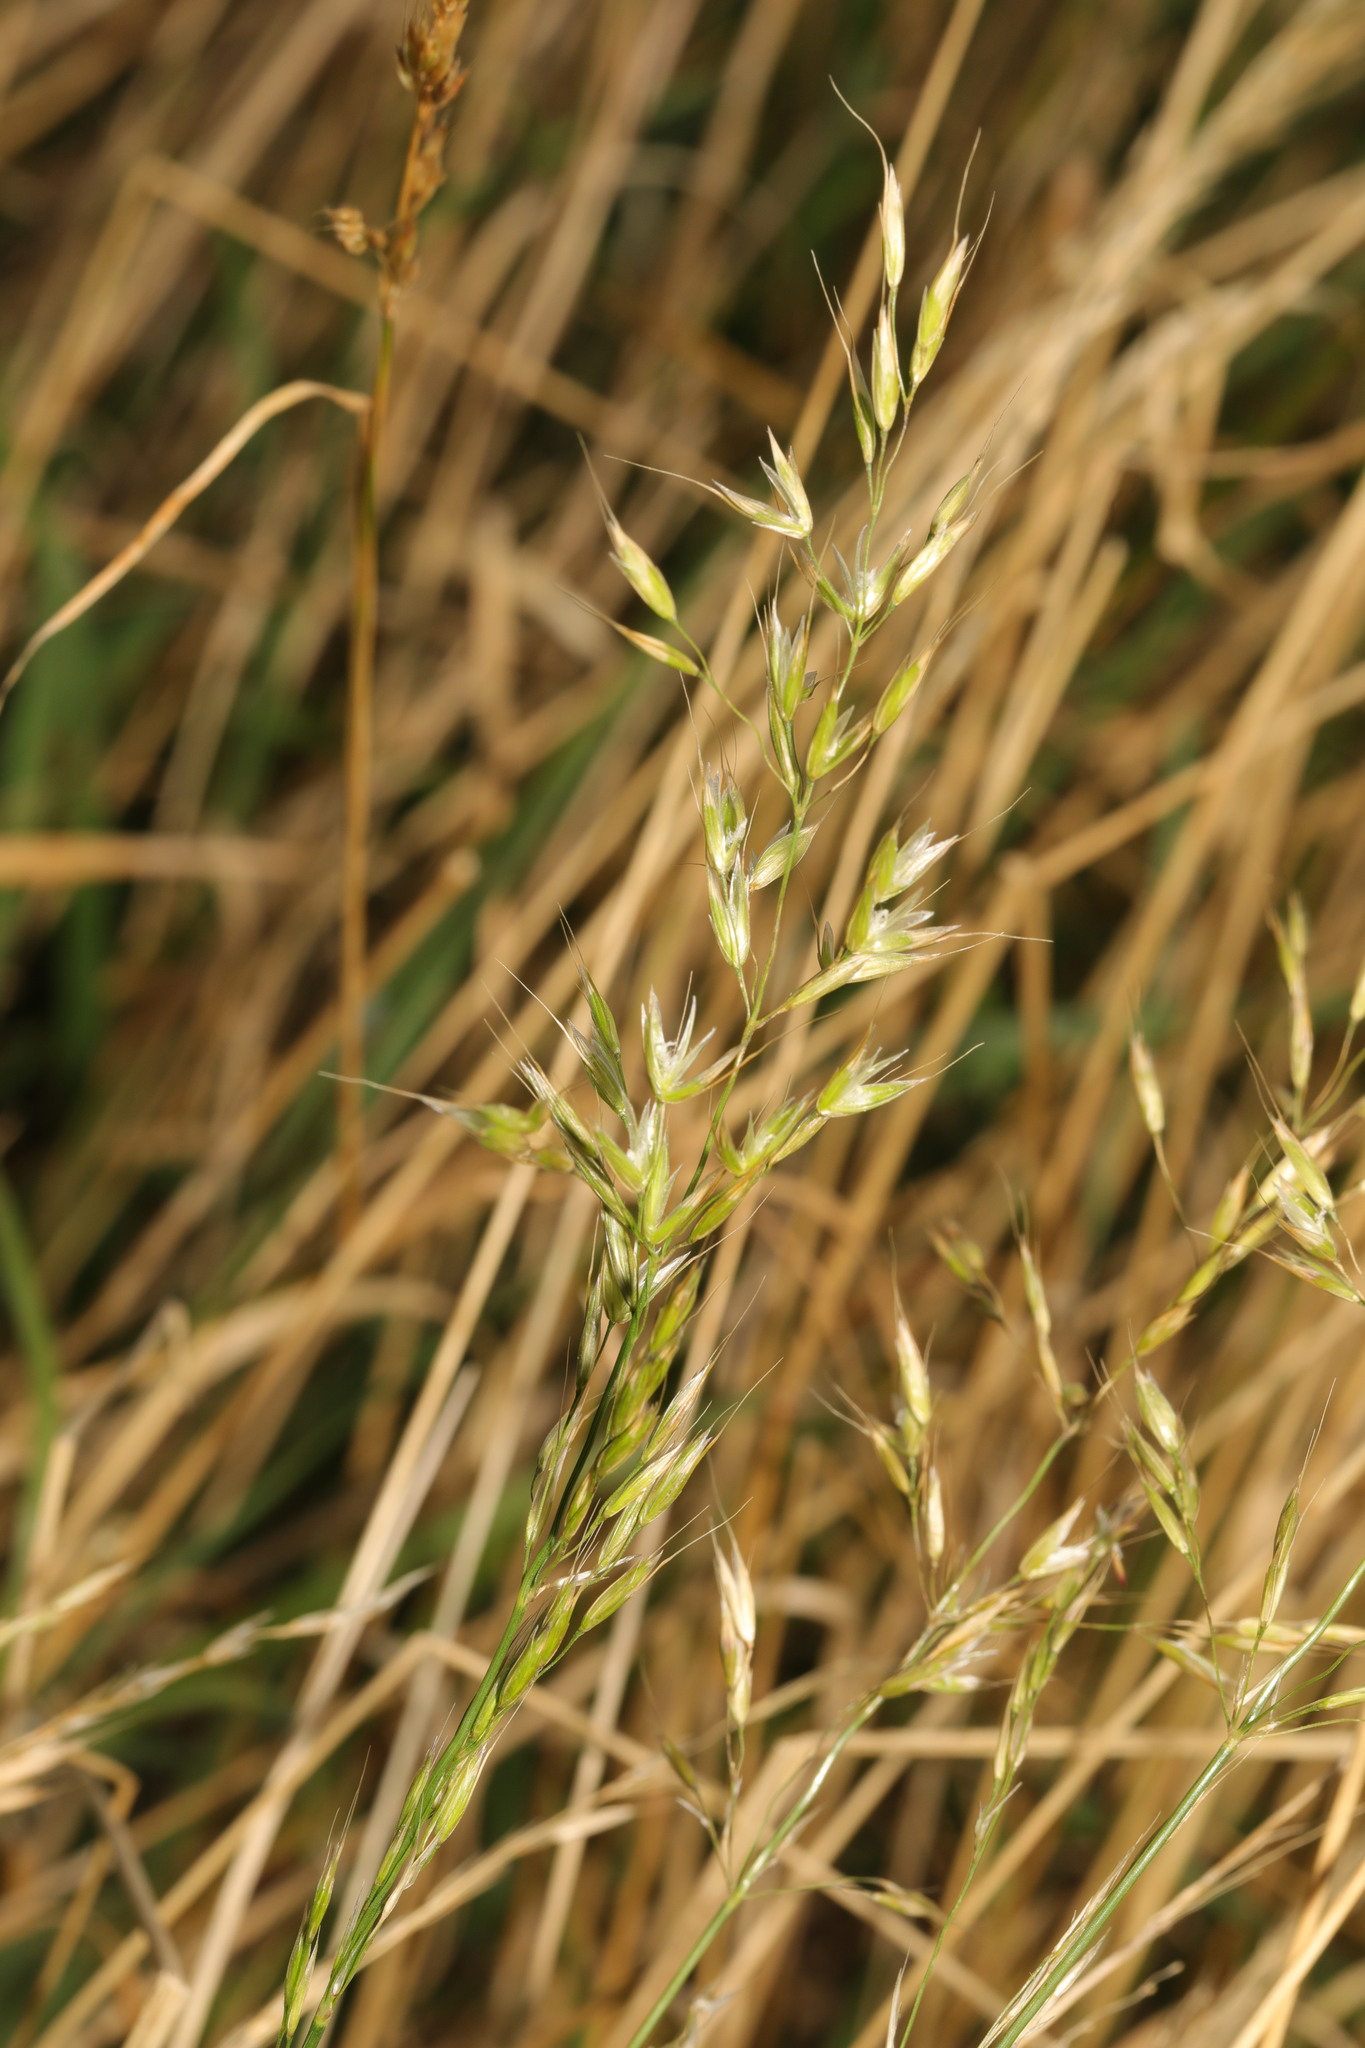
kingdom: Plantae
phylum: Tracheophyta
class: Liliopsida
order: Poales
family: Poaceae
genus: Arrhenatherum
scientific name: Arrhenatherum elatius
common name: Tall oatgrass
